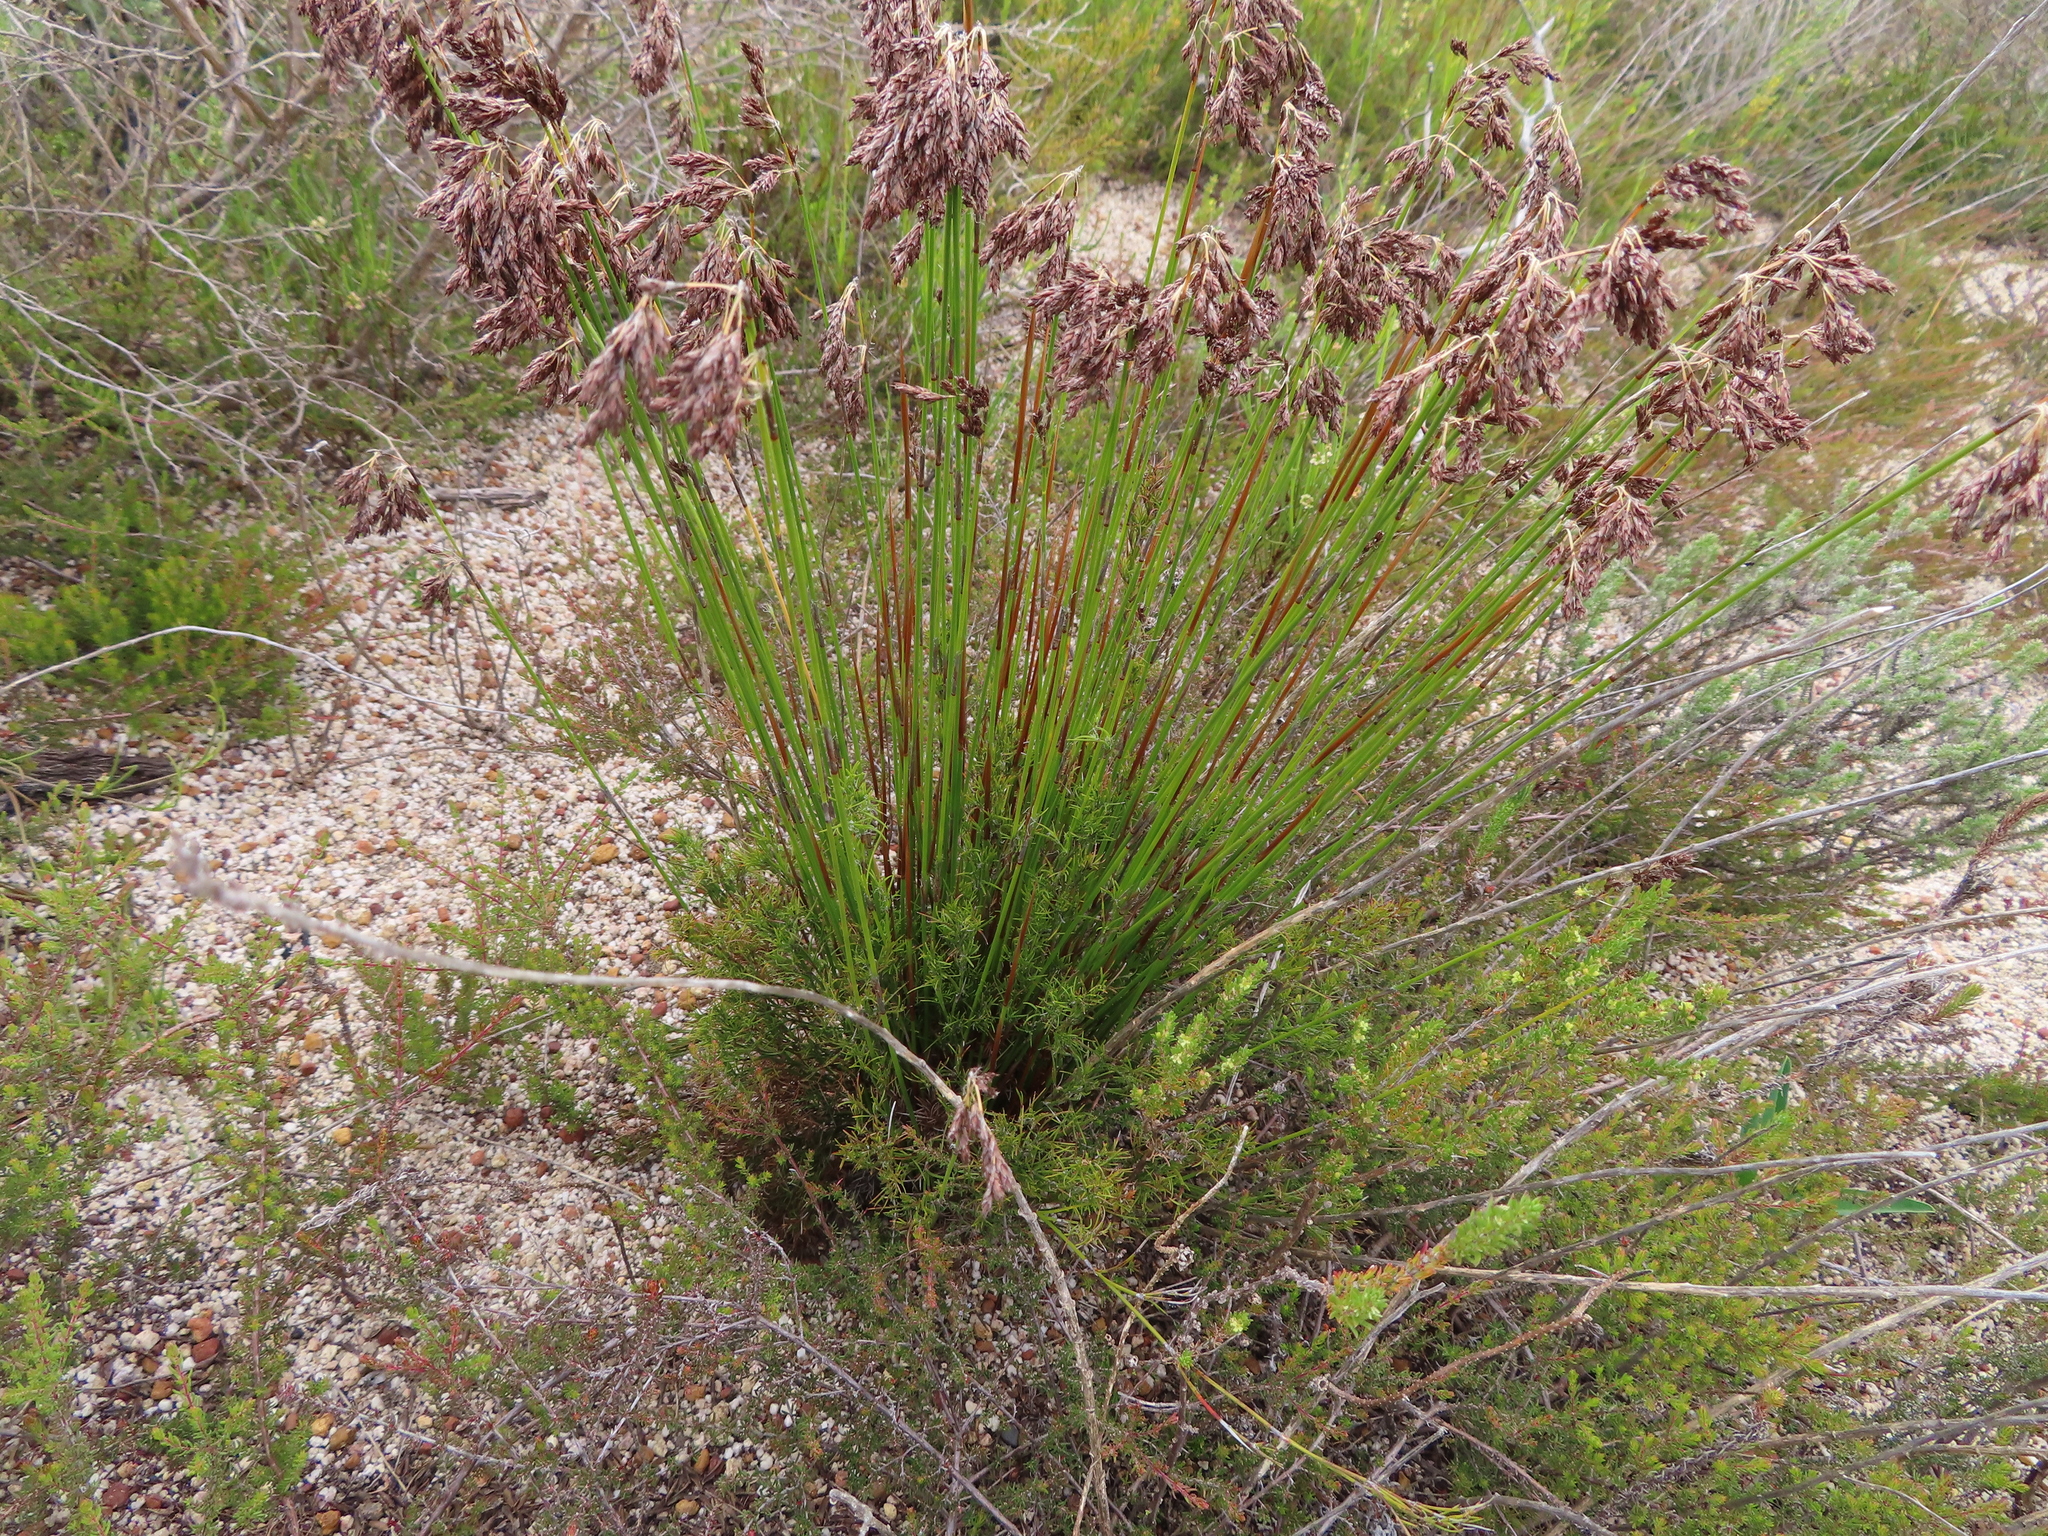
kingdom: Plantae
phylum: Tracheophyta
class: Liliopsida
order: Poales
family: Restionaceae
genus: Thamnochortus
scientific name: Thamnochortus lucens
